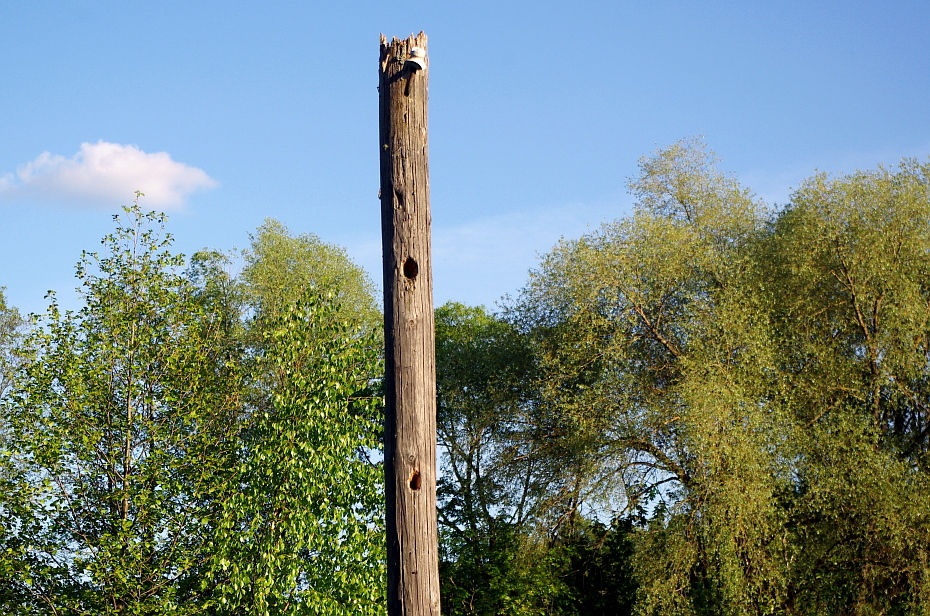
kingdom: Animalia
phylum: Chordata
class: Aves
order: Piciformes
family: Picidae
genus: Dendrocopos
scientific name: Dendrocopos major
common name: Great spotted woodpecker
